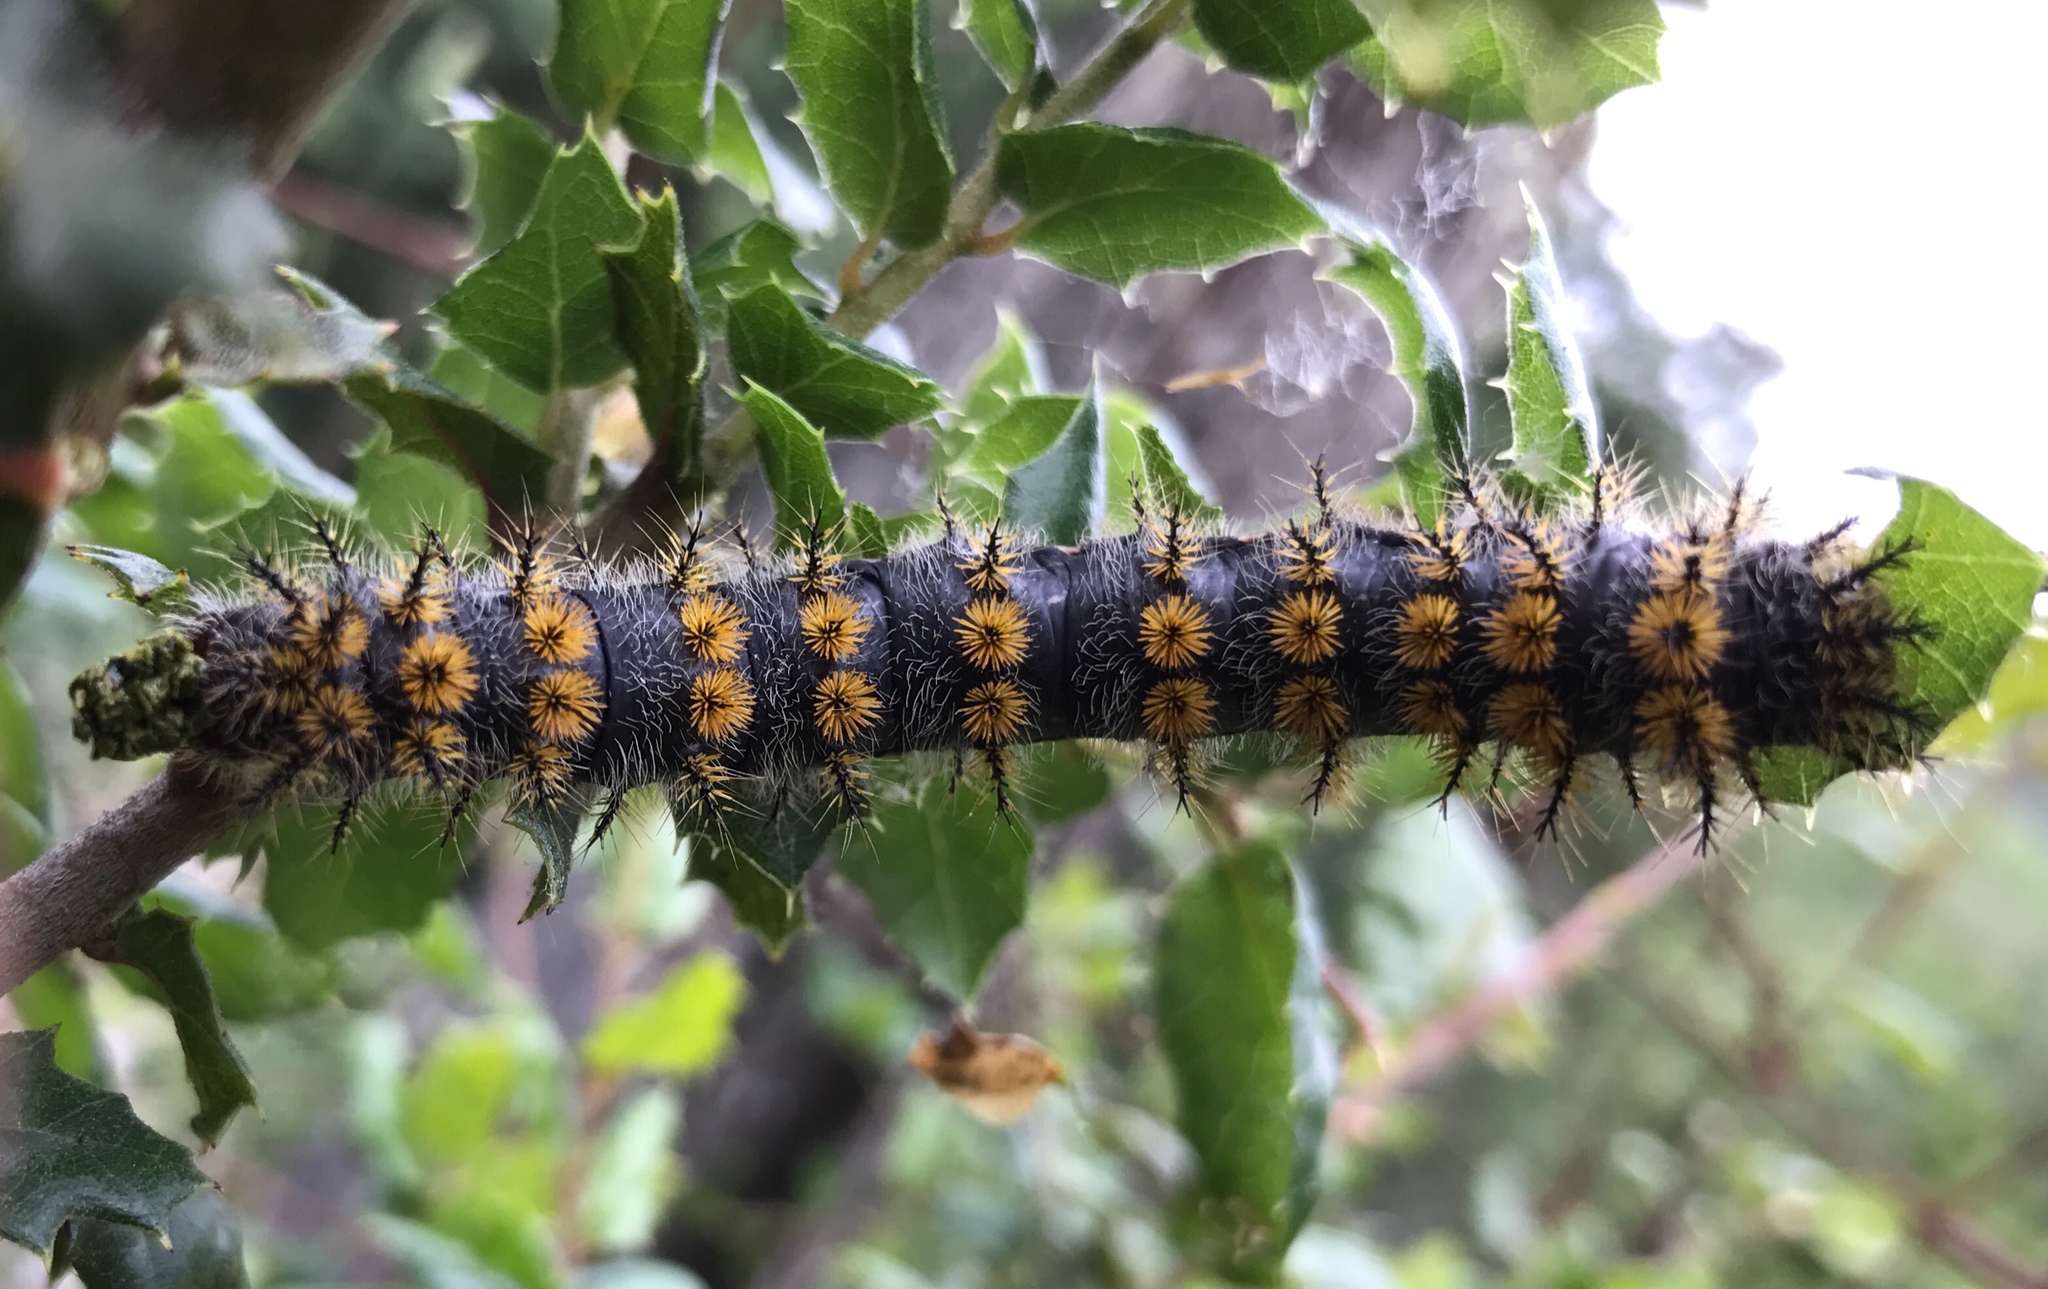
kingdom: Animalia
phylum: Arthropoda
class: Insecta
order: Lepidoptera
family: Saturniidae
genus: Hemileuca
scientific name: Hemileuca eglanterina
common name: Western sheepmoth
